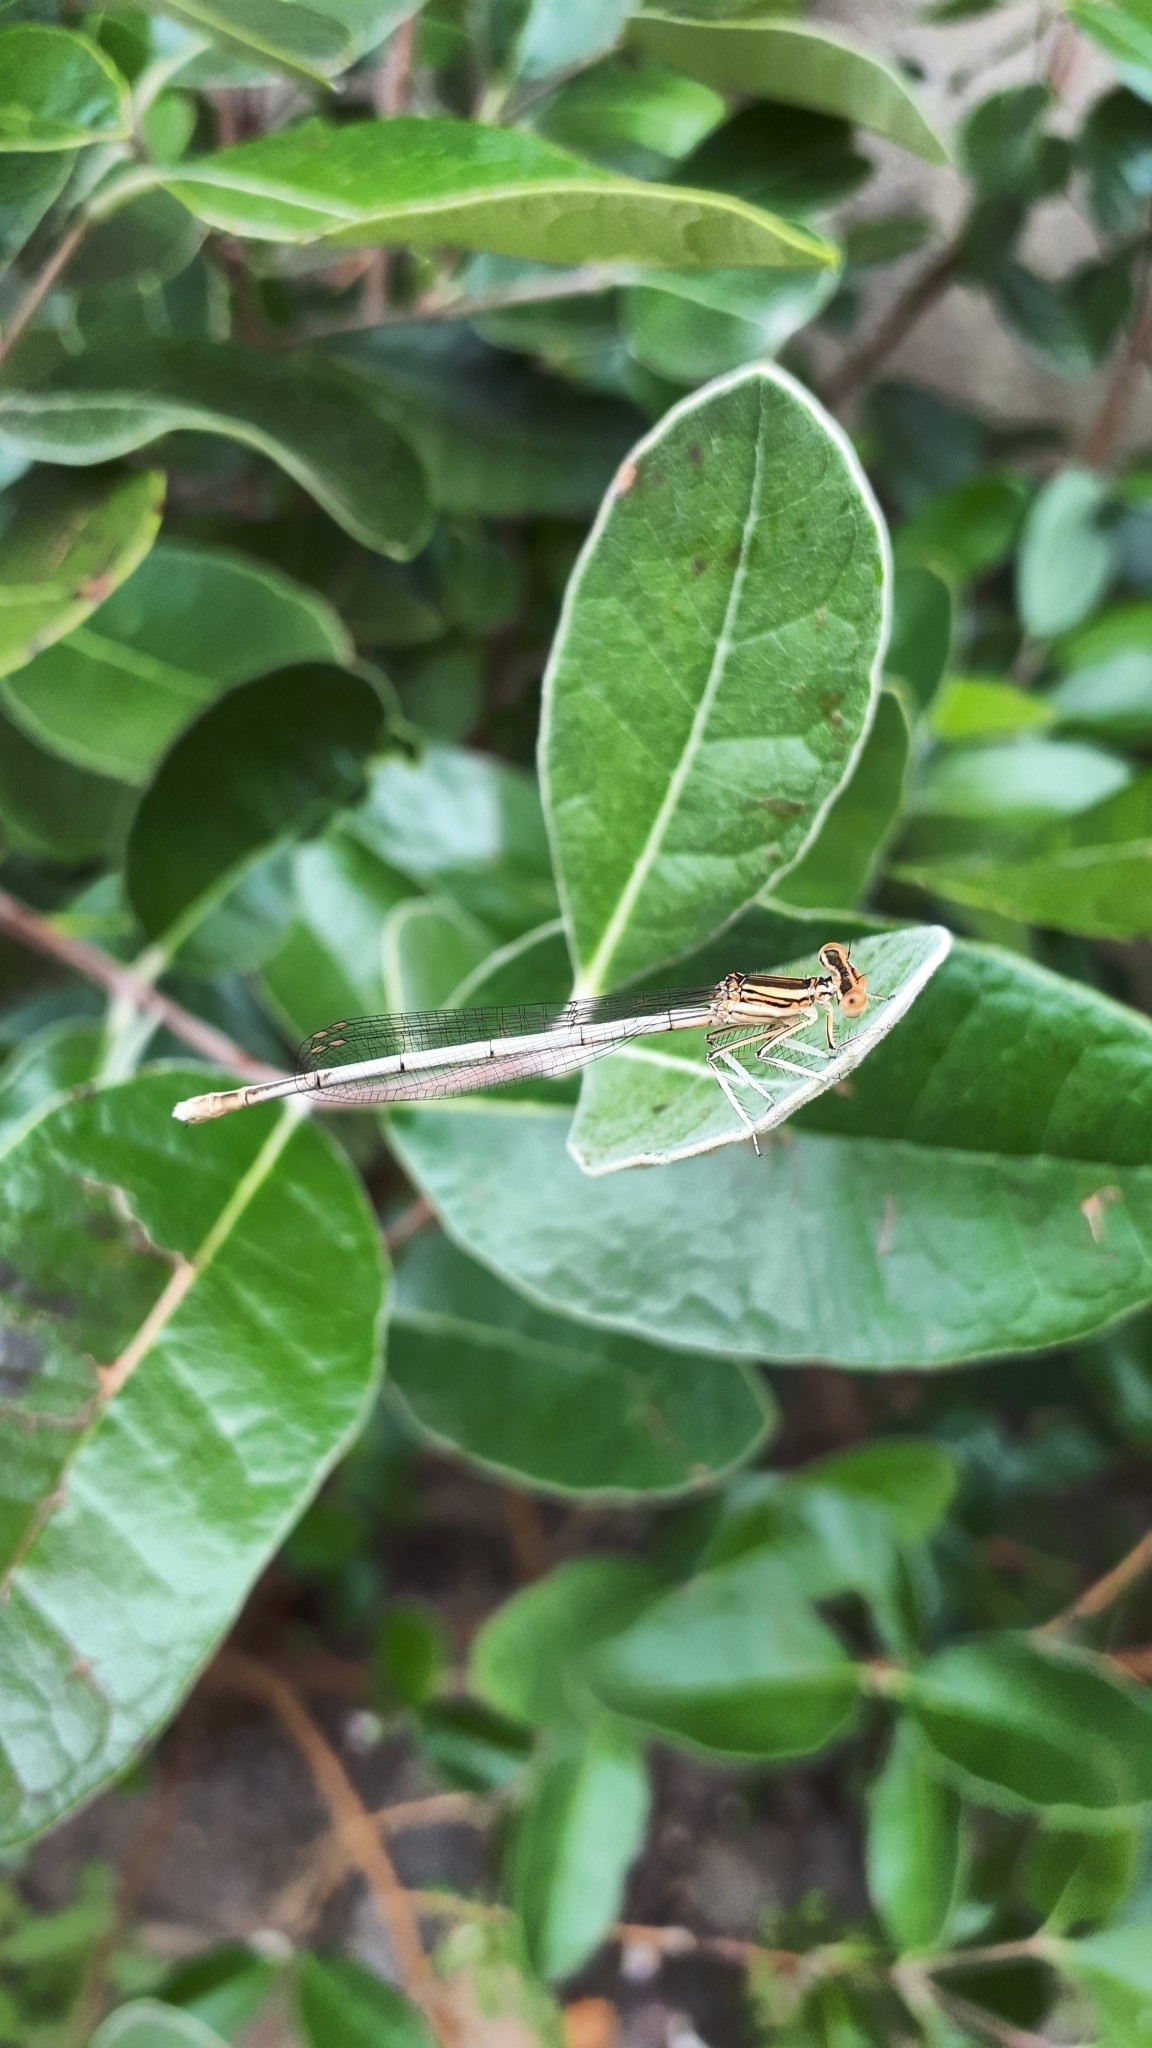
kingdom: Animalia
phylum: Arthropoda
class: Insecta
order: Odonata
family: Platycnemididae
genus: Platycnemis
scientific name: Platycnemis latipes
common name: White featherleg
